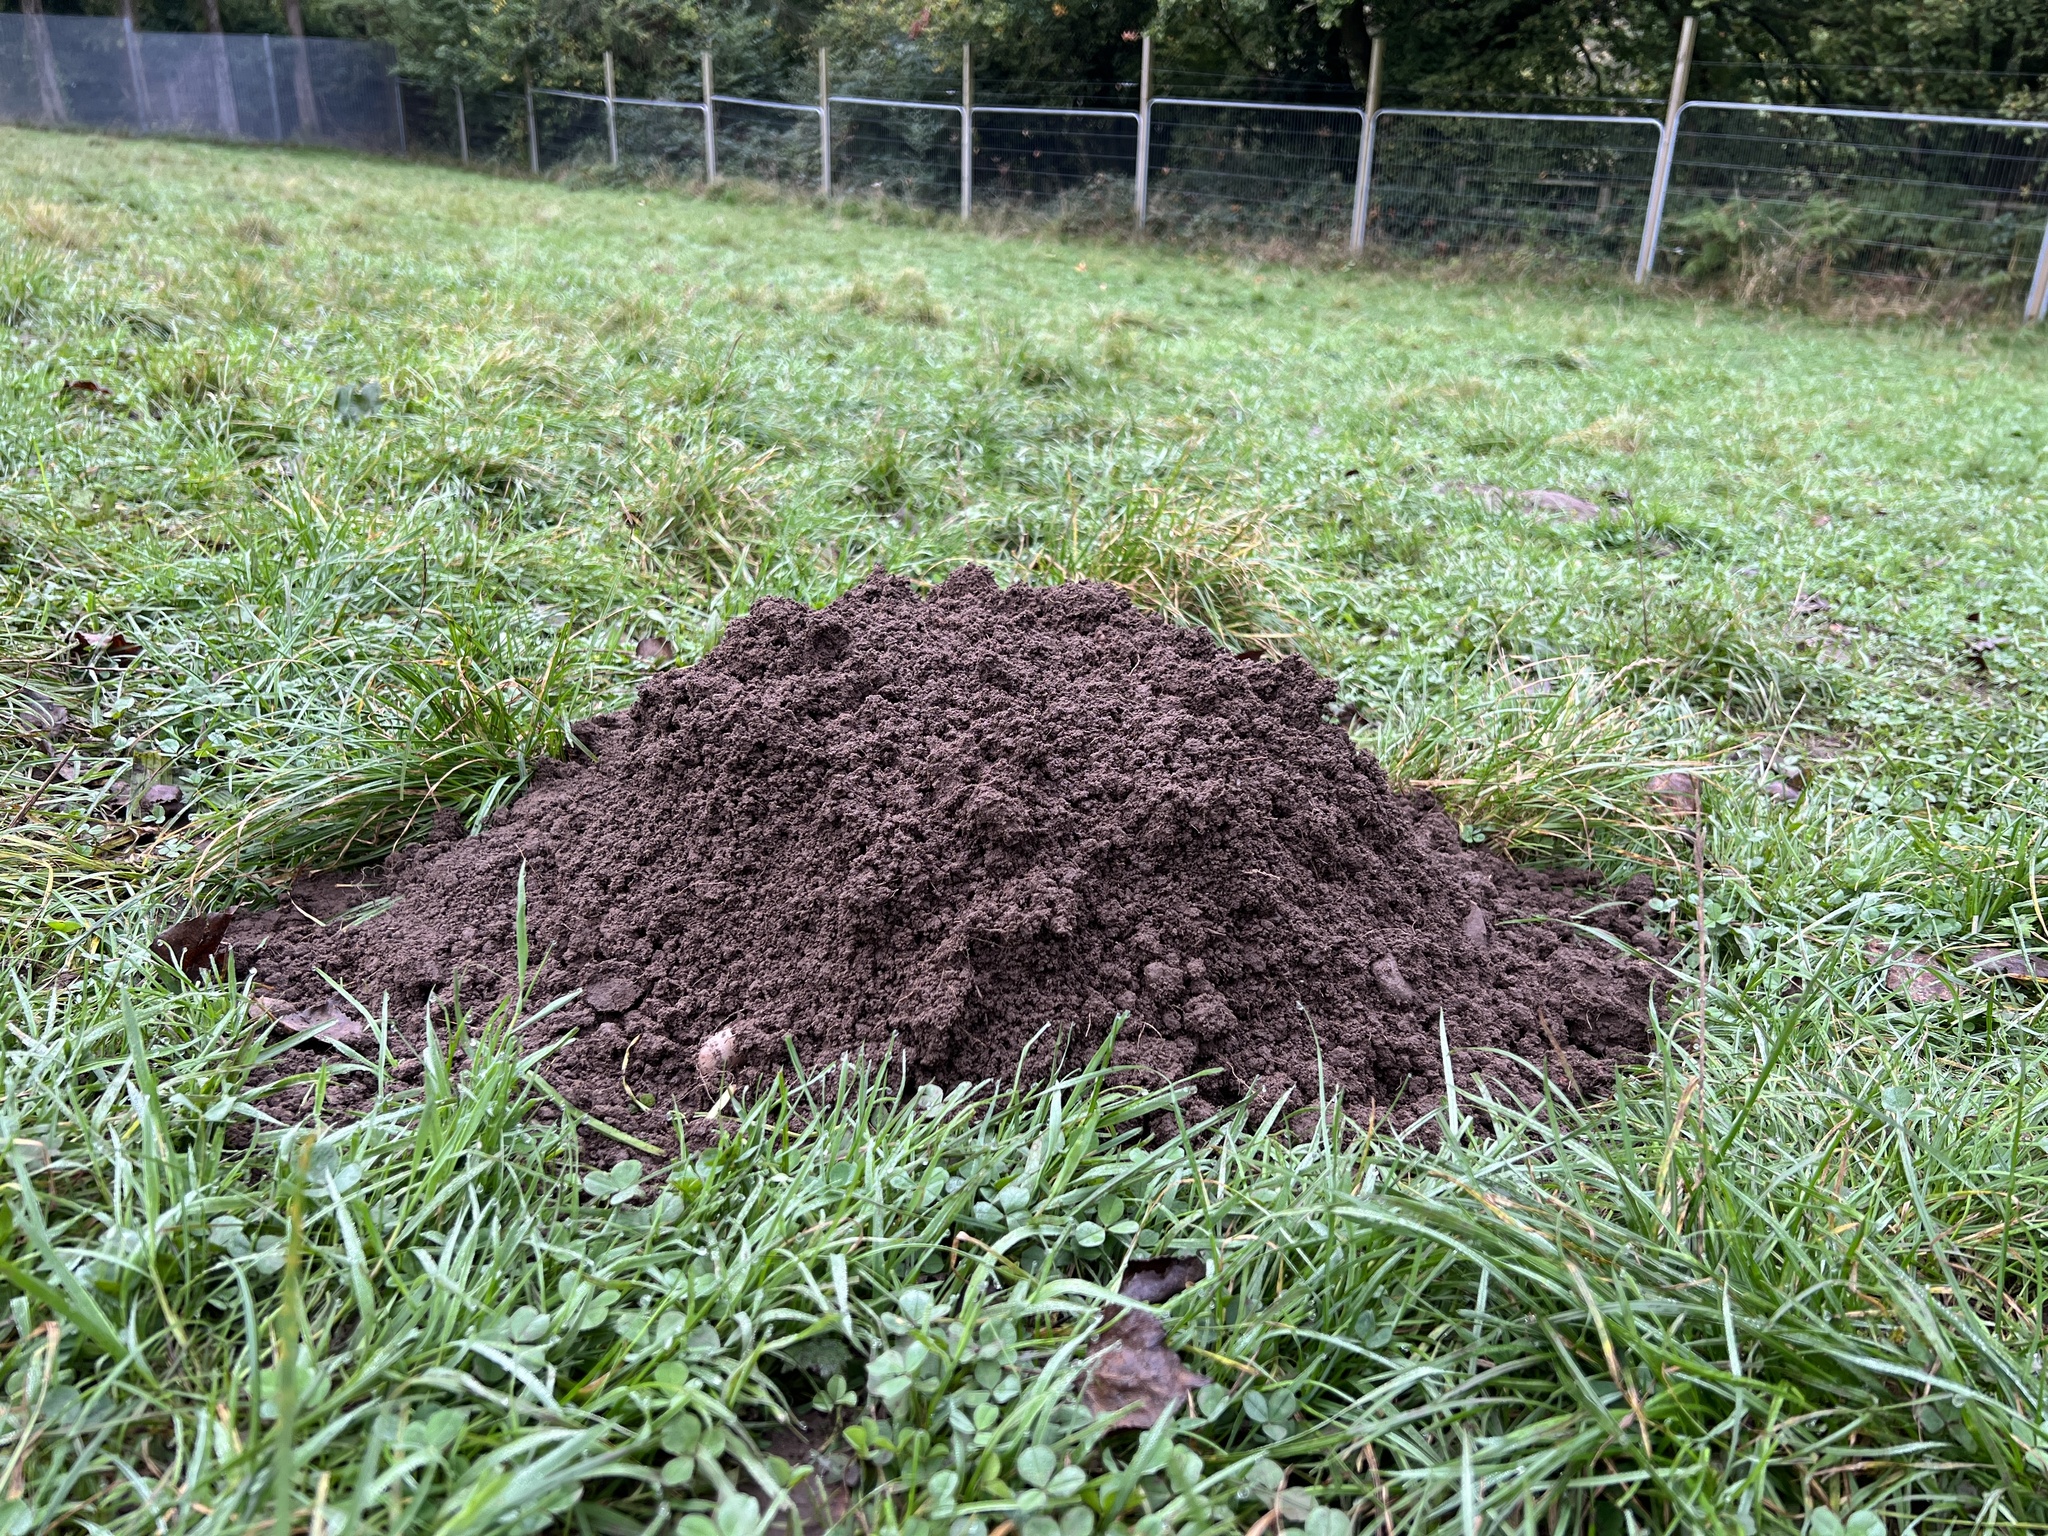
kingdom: Animalia
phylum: Chordata
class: Mammalia
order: Soricomorpha
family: Talpidae
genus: Talpa
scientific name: Talpa europaea
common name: European mole
